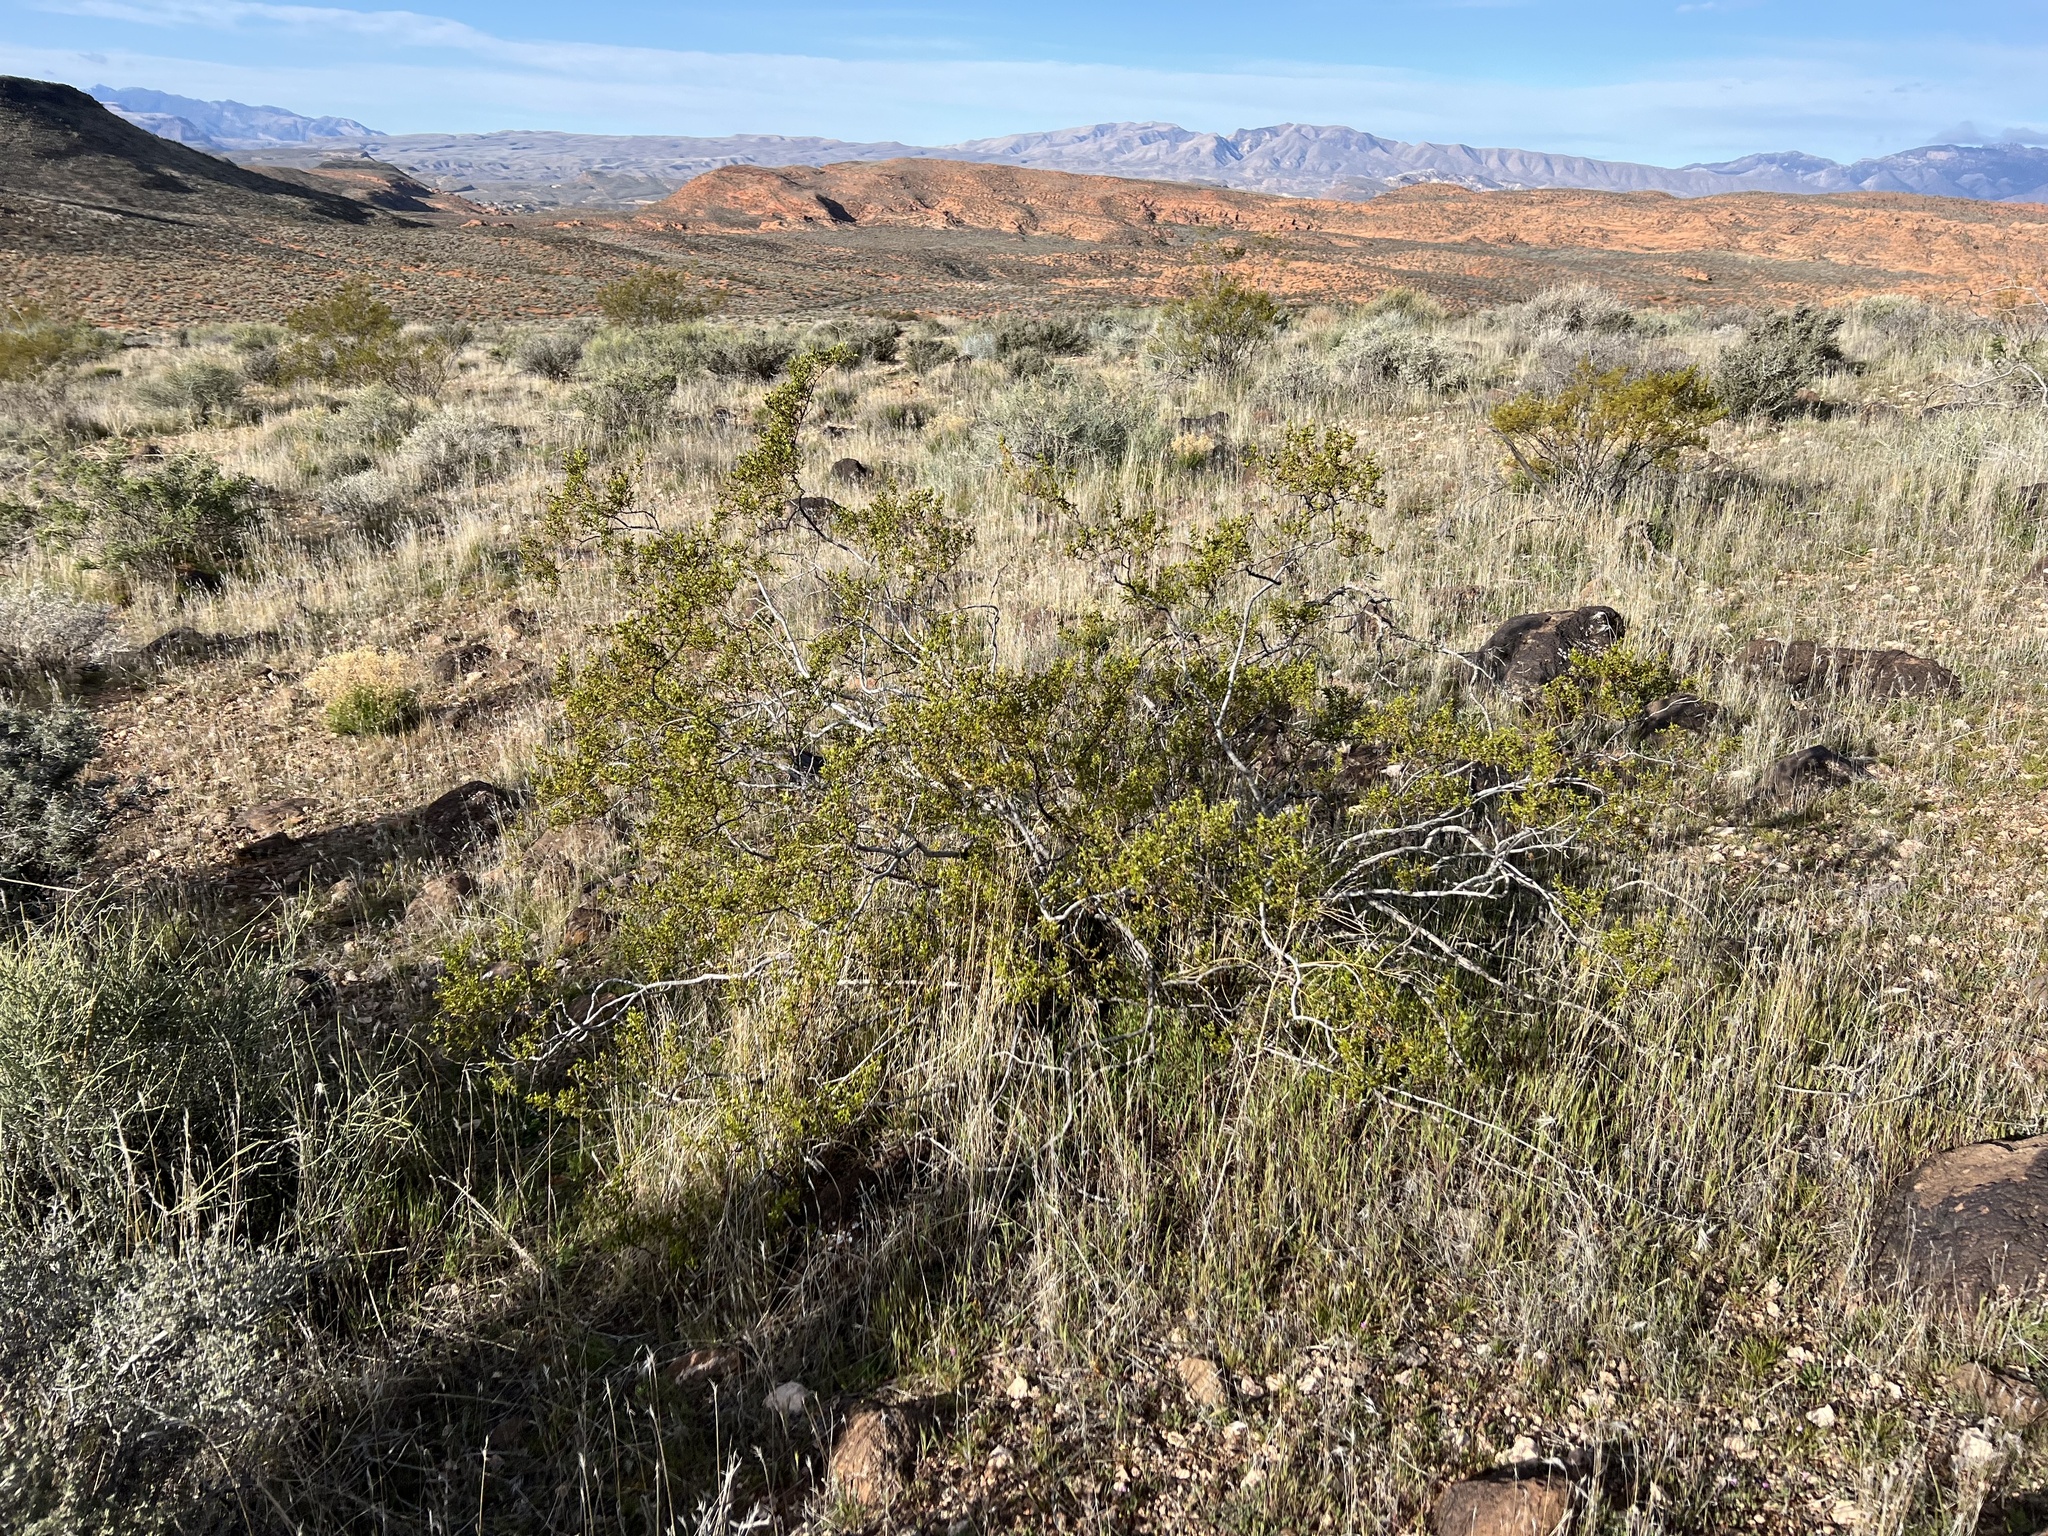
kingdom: Plantae
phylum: Tracheophyta
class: Magnoliopsida
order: Zygophyllales
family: Zygophyllaceae
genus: Larrea
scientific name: Larrea tridentata
